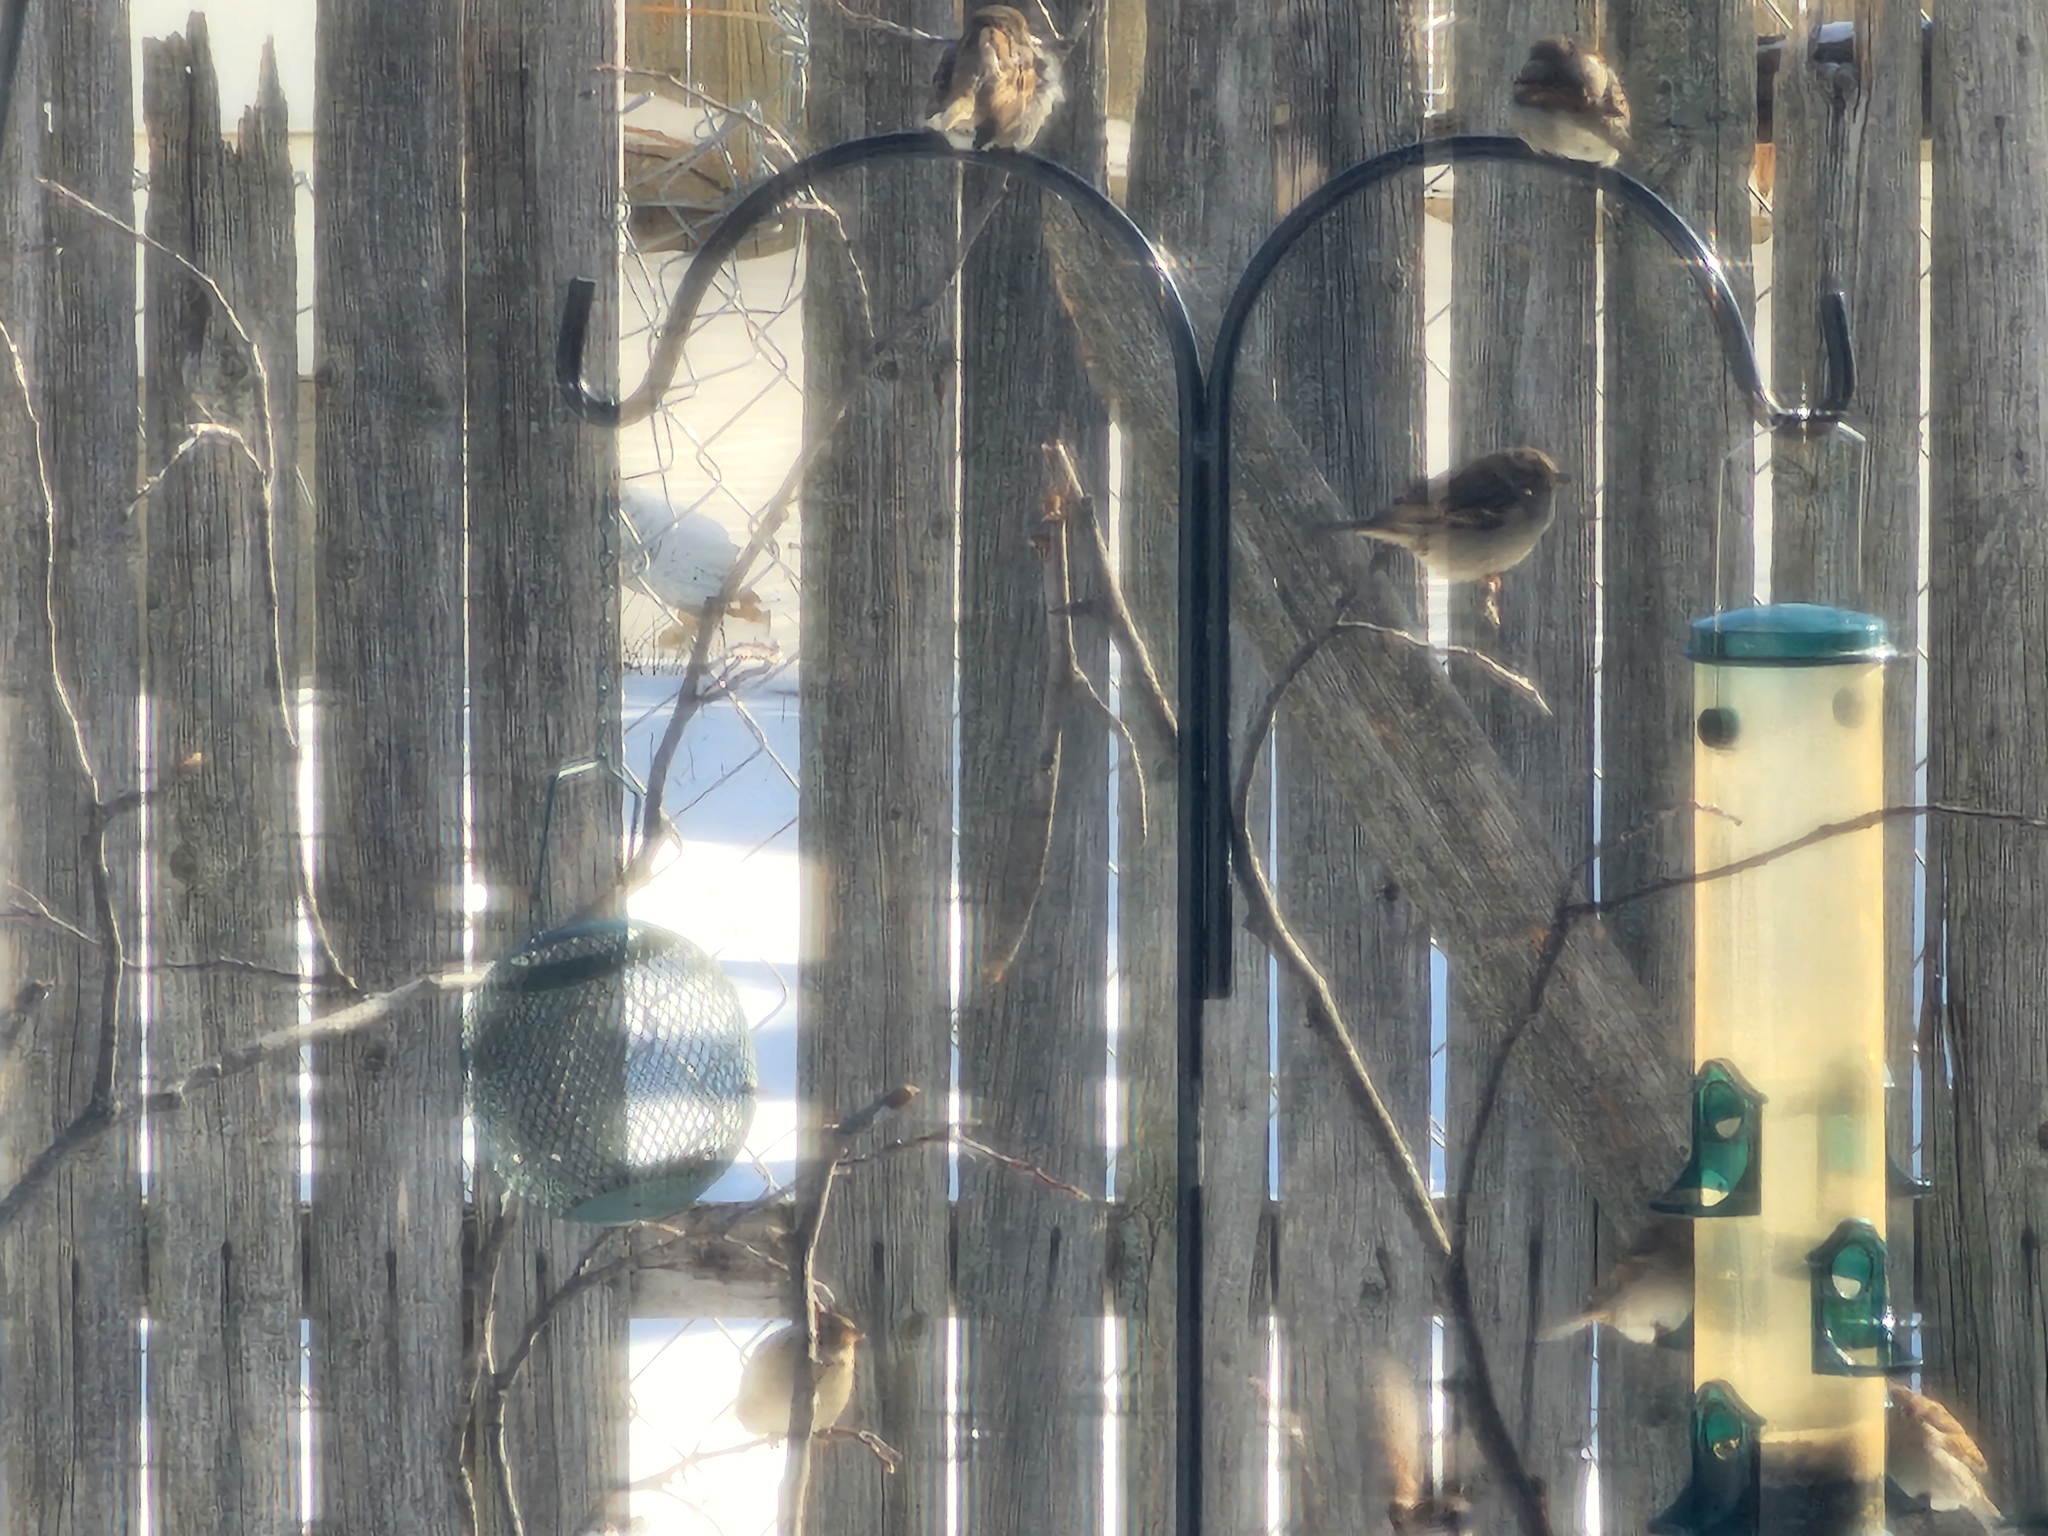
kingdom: Animalia
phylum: Chordata
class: Aves
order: Passeriformes
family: Passeridae
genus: Passer
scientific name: Passer domesticus
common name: House sparrow
